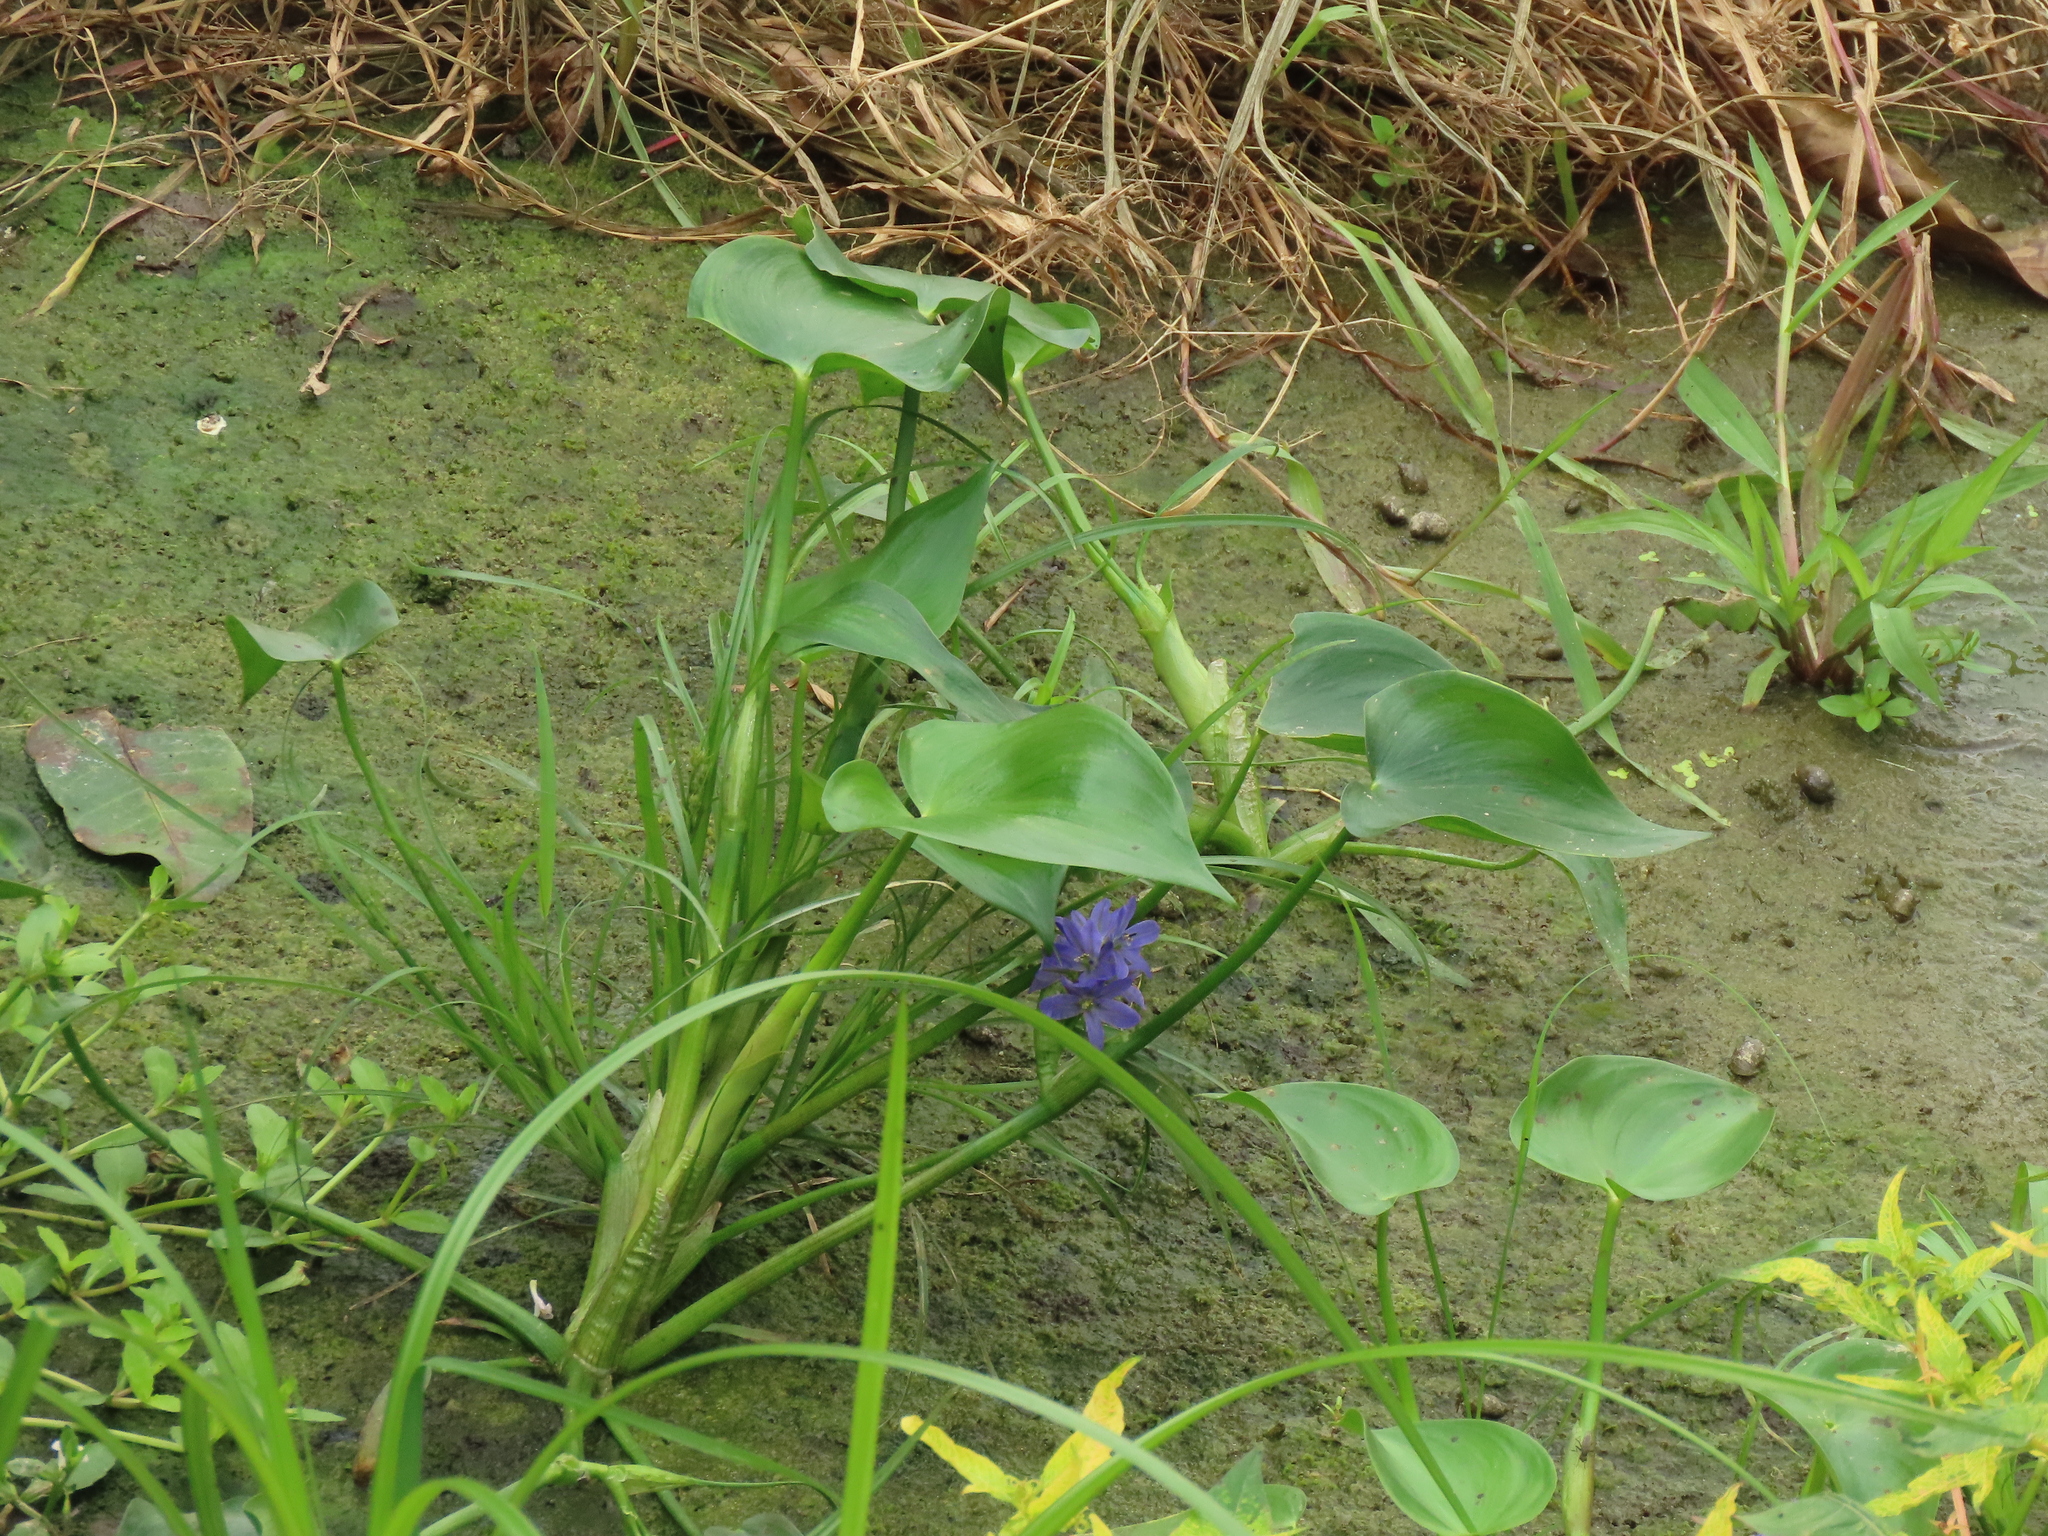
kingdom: Plantae
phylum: Tracheophyta
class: Liliopsida
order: Commelinales
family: Pontederiaceae
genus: Pontederia
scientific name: Pontederia vaginalis
